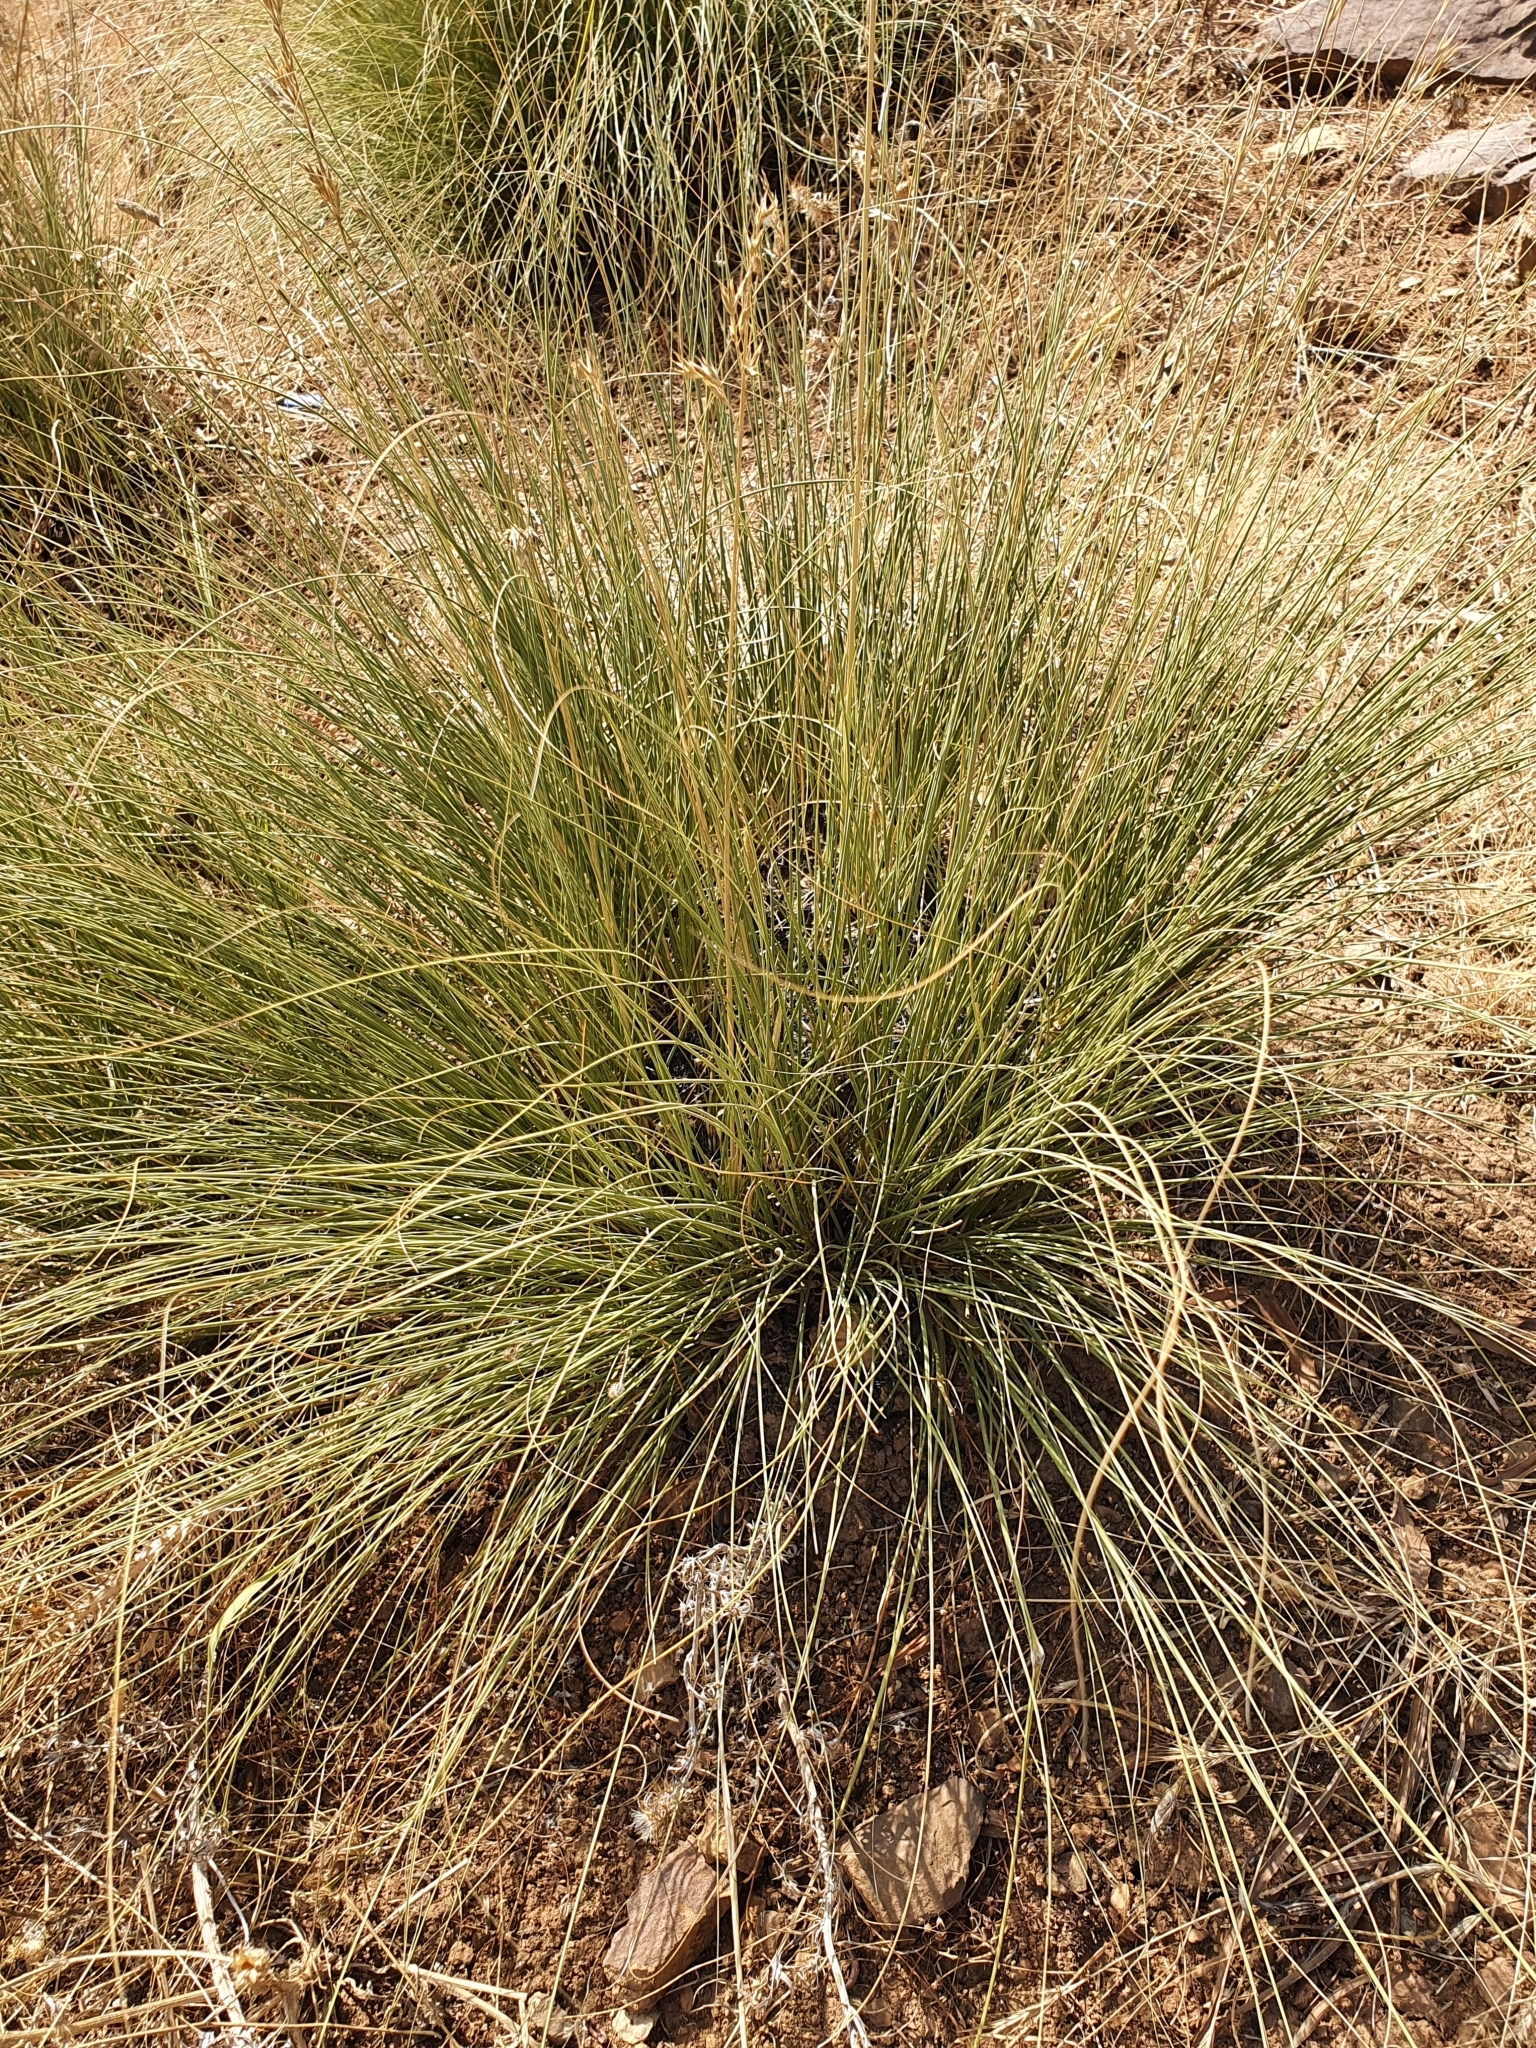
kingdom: Plantae
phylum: Tracheophyta
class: Liliopsida
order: Poales
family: Poaceae
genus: Ampelodesmos
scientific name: Ampelodesmos mauritanicus
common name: Mauritanian grass
